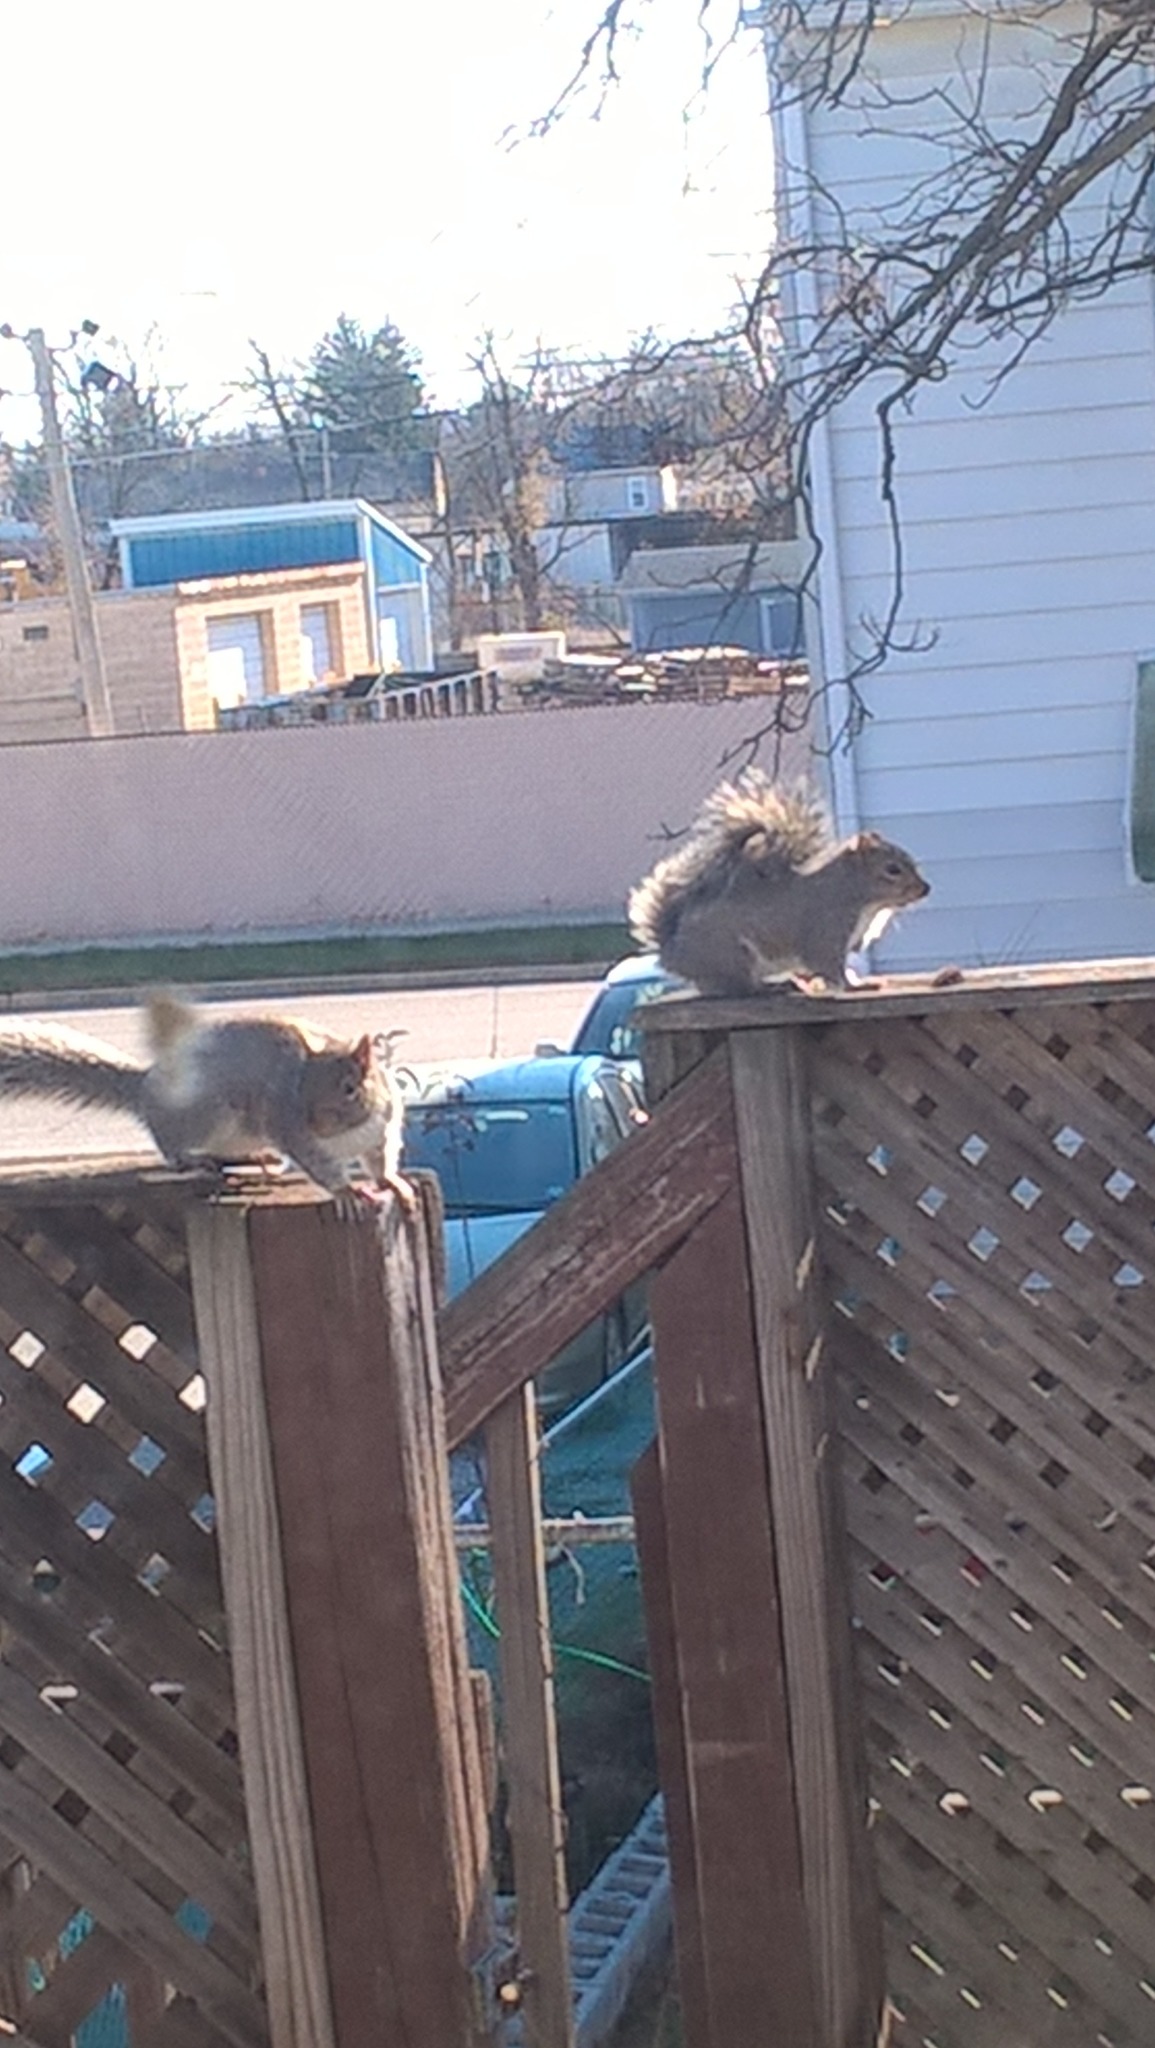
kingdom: Animalia
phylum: Chordata
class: Mammalia
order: Rodentia
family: Sciuridae
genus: Sciurus
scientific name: Sciurus carolinensis
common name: Eastern gray squirrel
